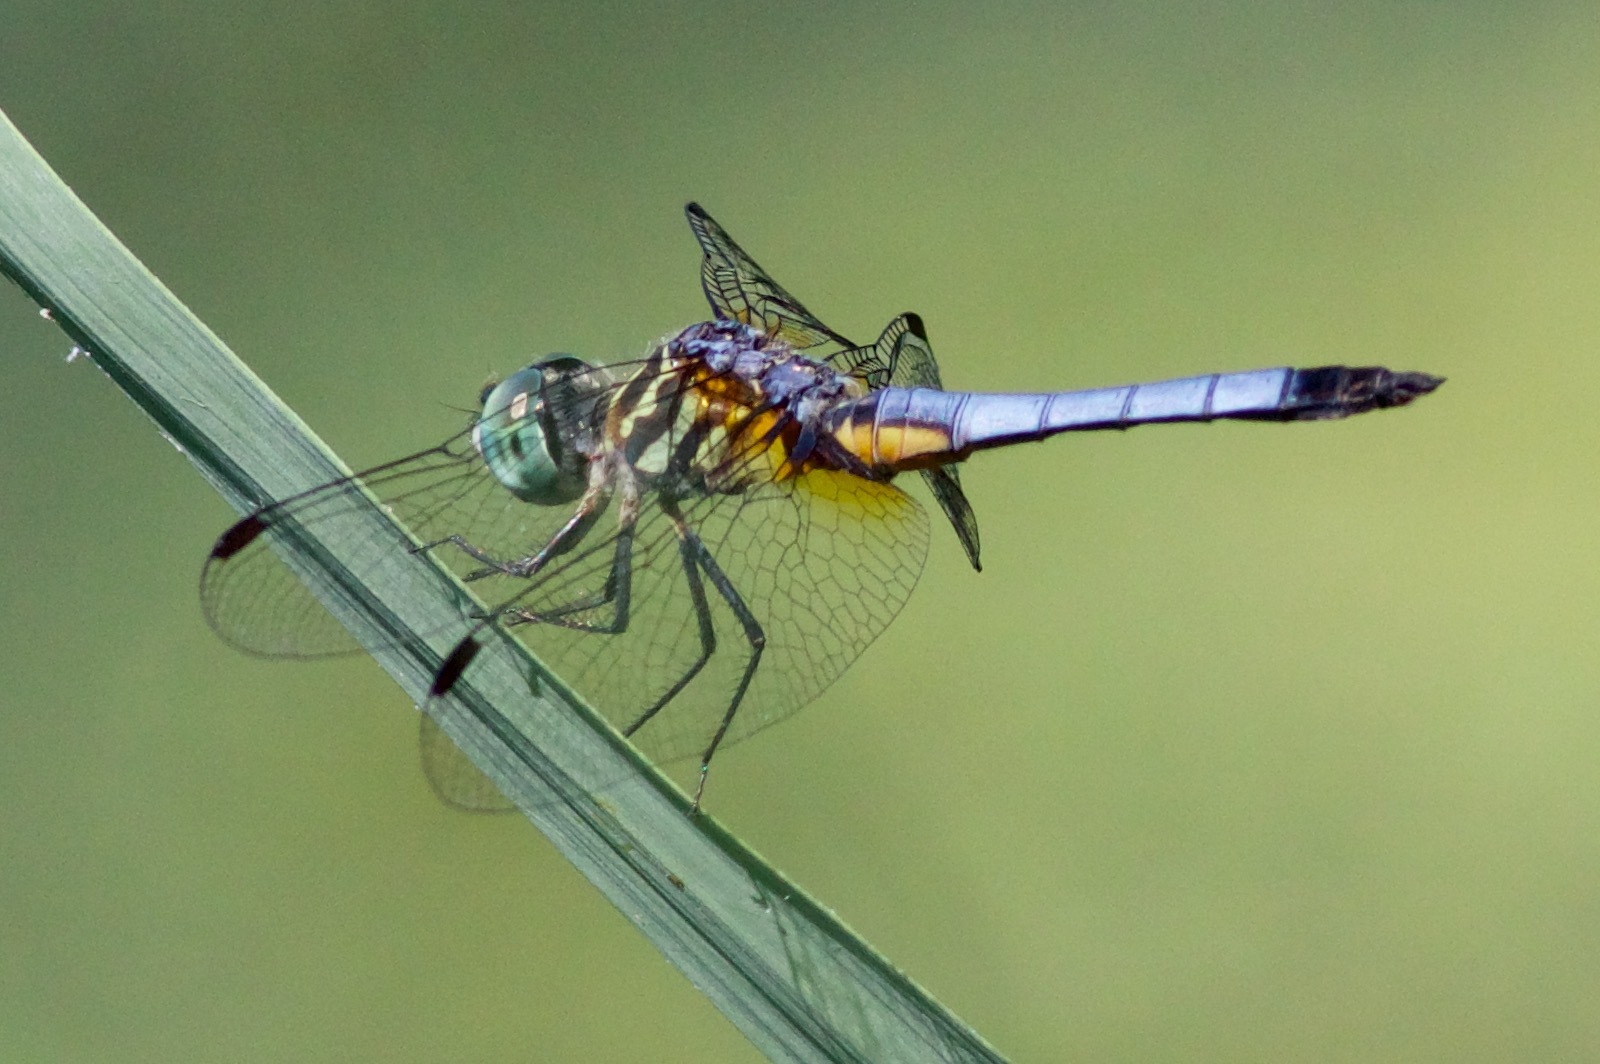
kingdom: Animalia
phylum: Arthropoda
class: Insecta
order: Odonata
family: Libellulidae
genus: Pachydiplax
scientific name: Pachydiplax longipennis
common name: Blue dasher
